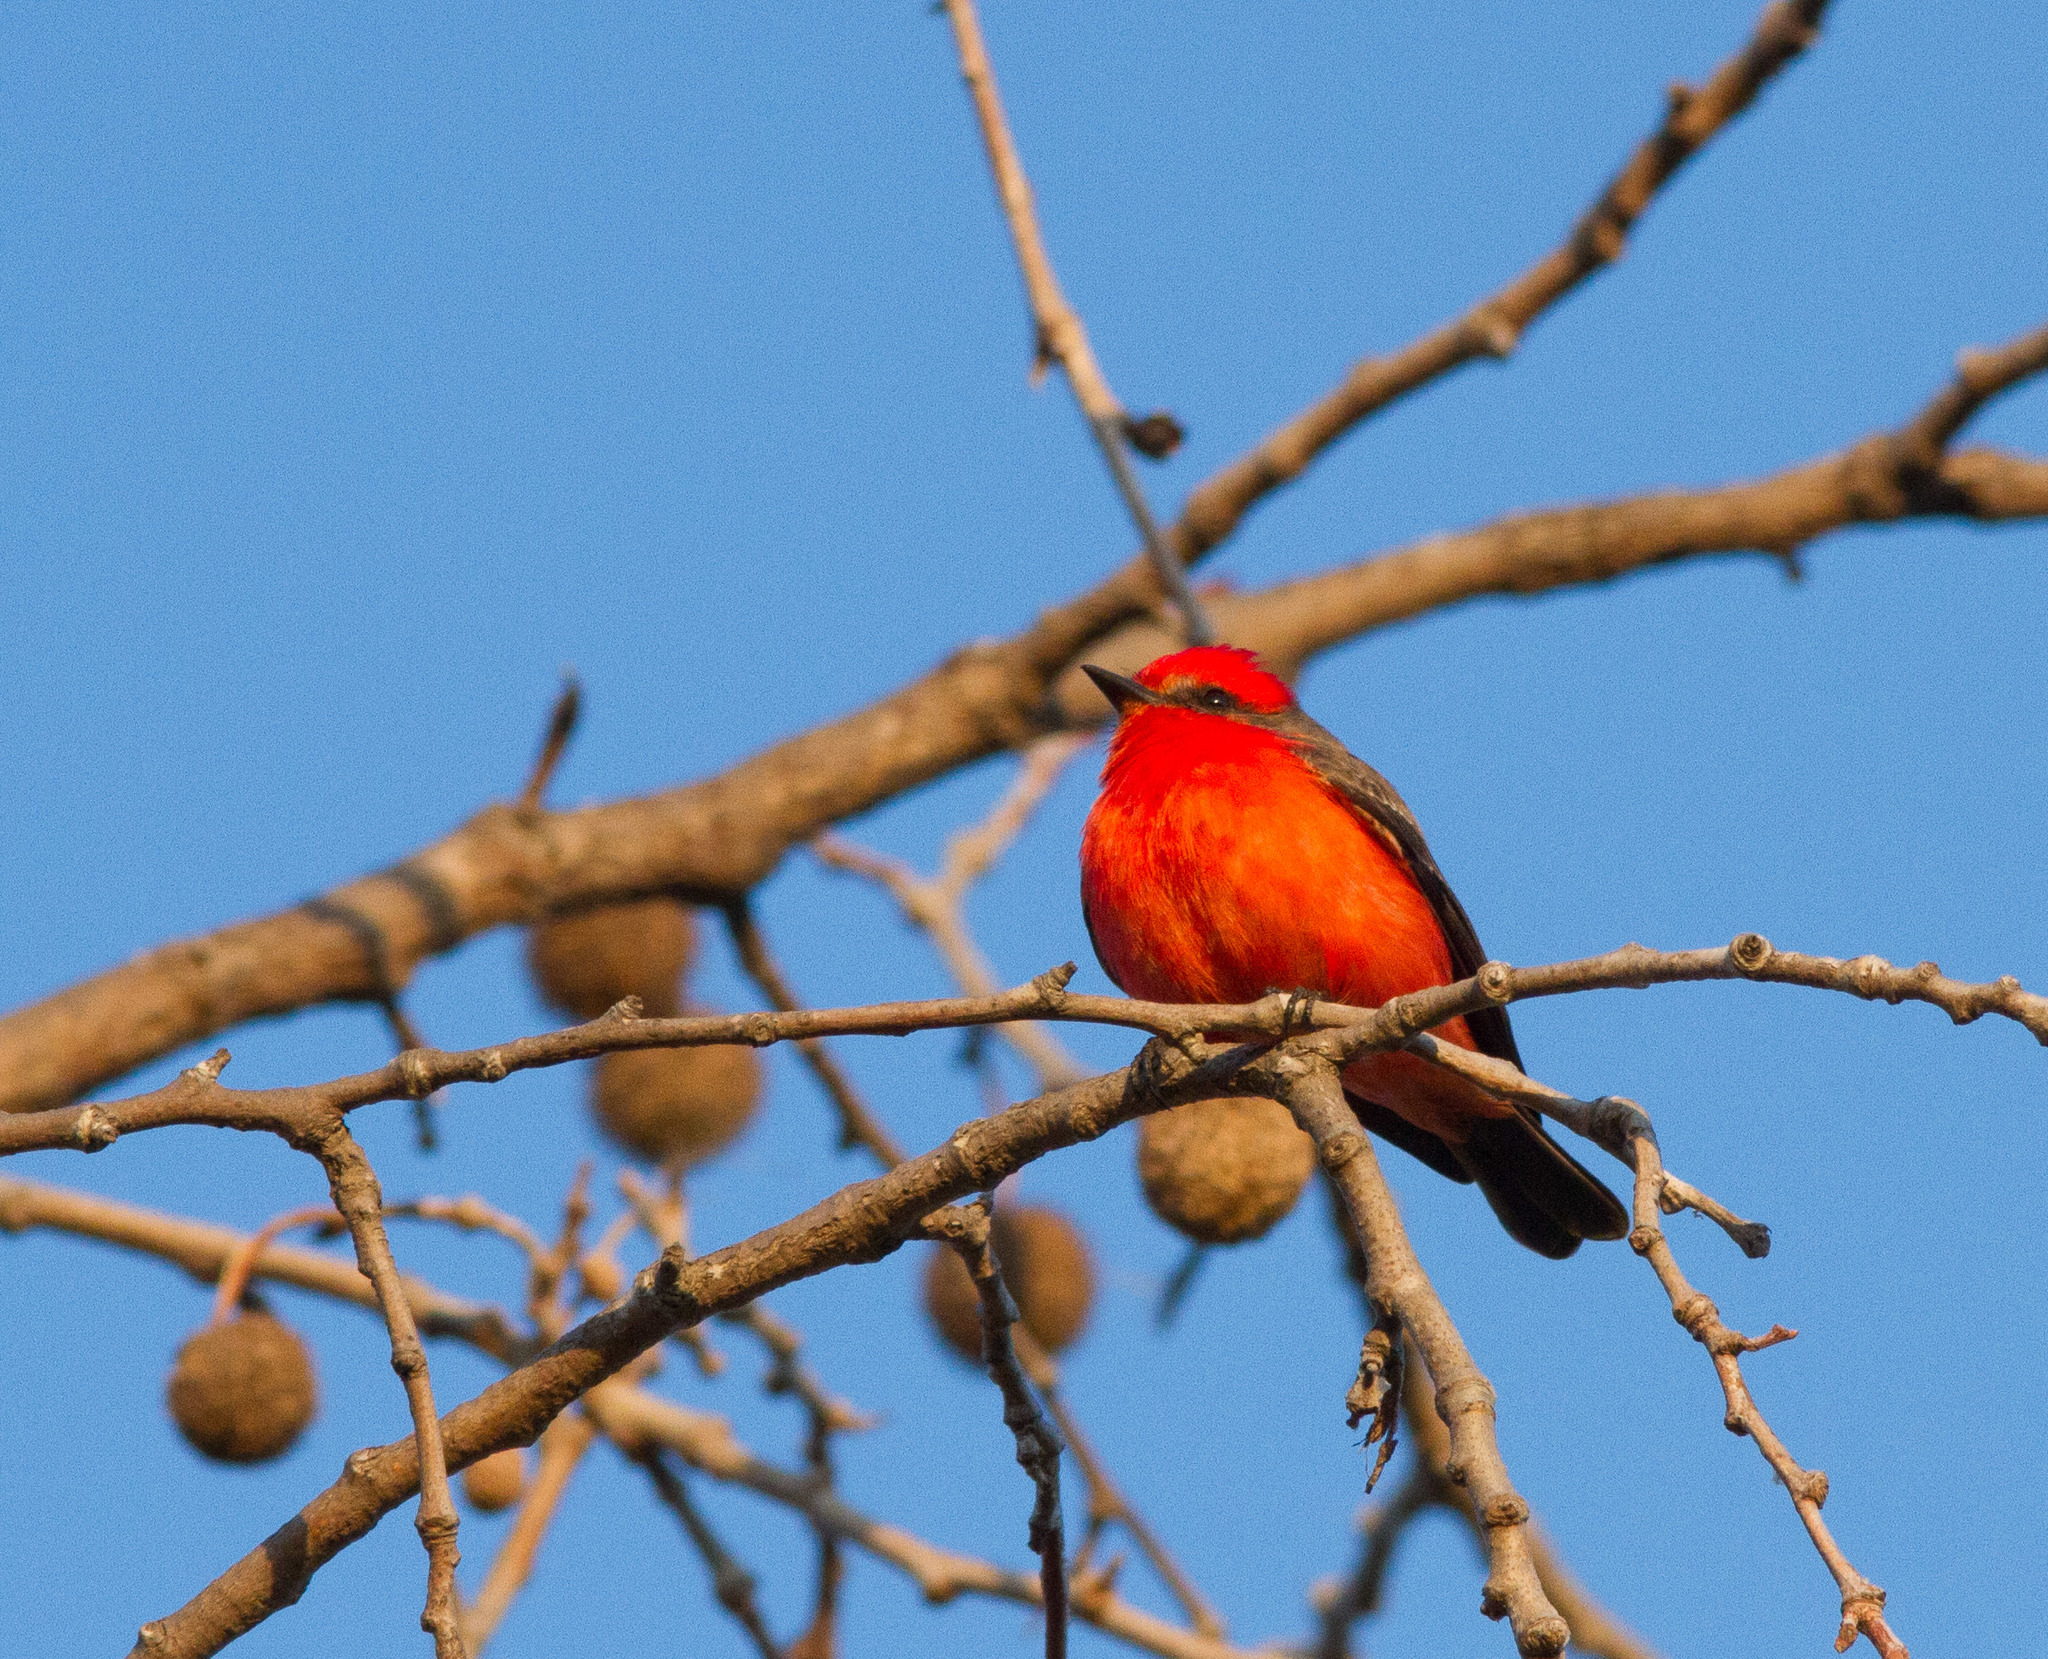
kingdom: Animalia
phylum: Chordata
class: Aves
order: Passeriformes
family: Tyrannidae
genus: Pyrocephalus
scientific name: Pyrocephalus rubinus
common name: Vermilion flycatcher
